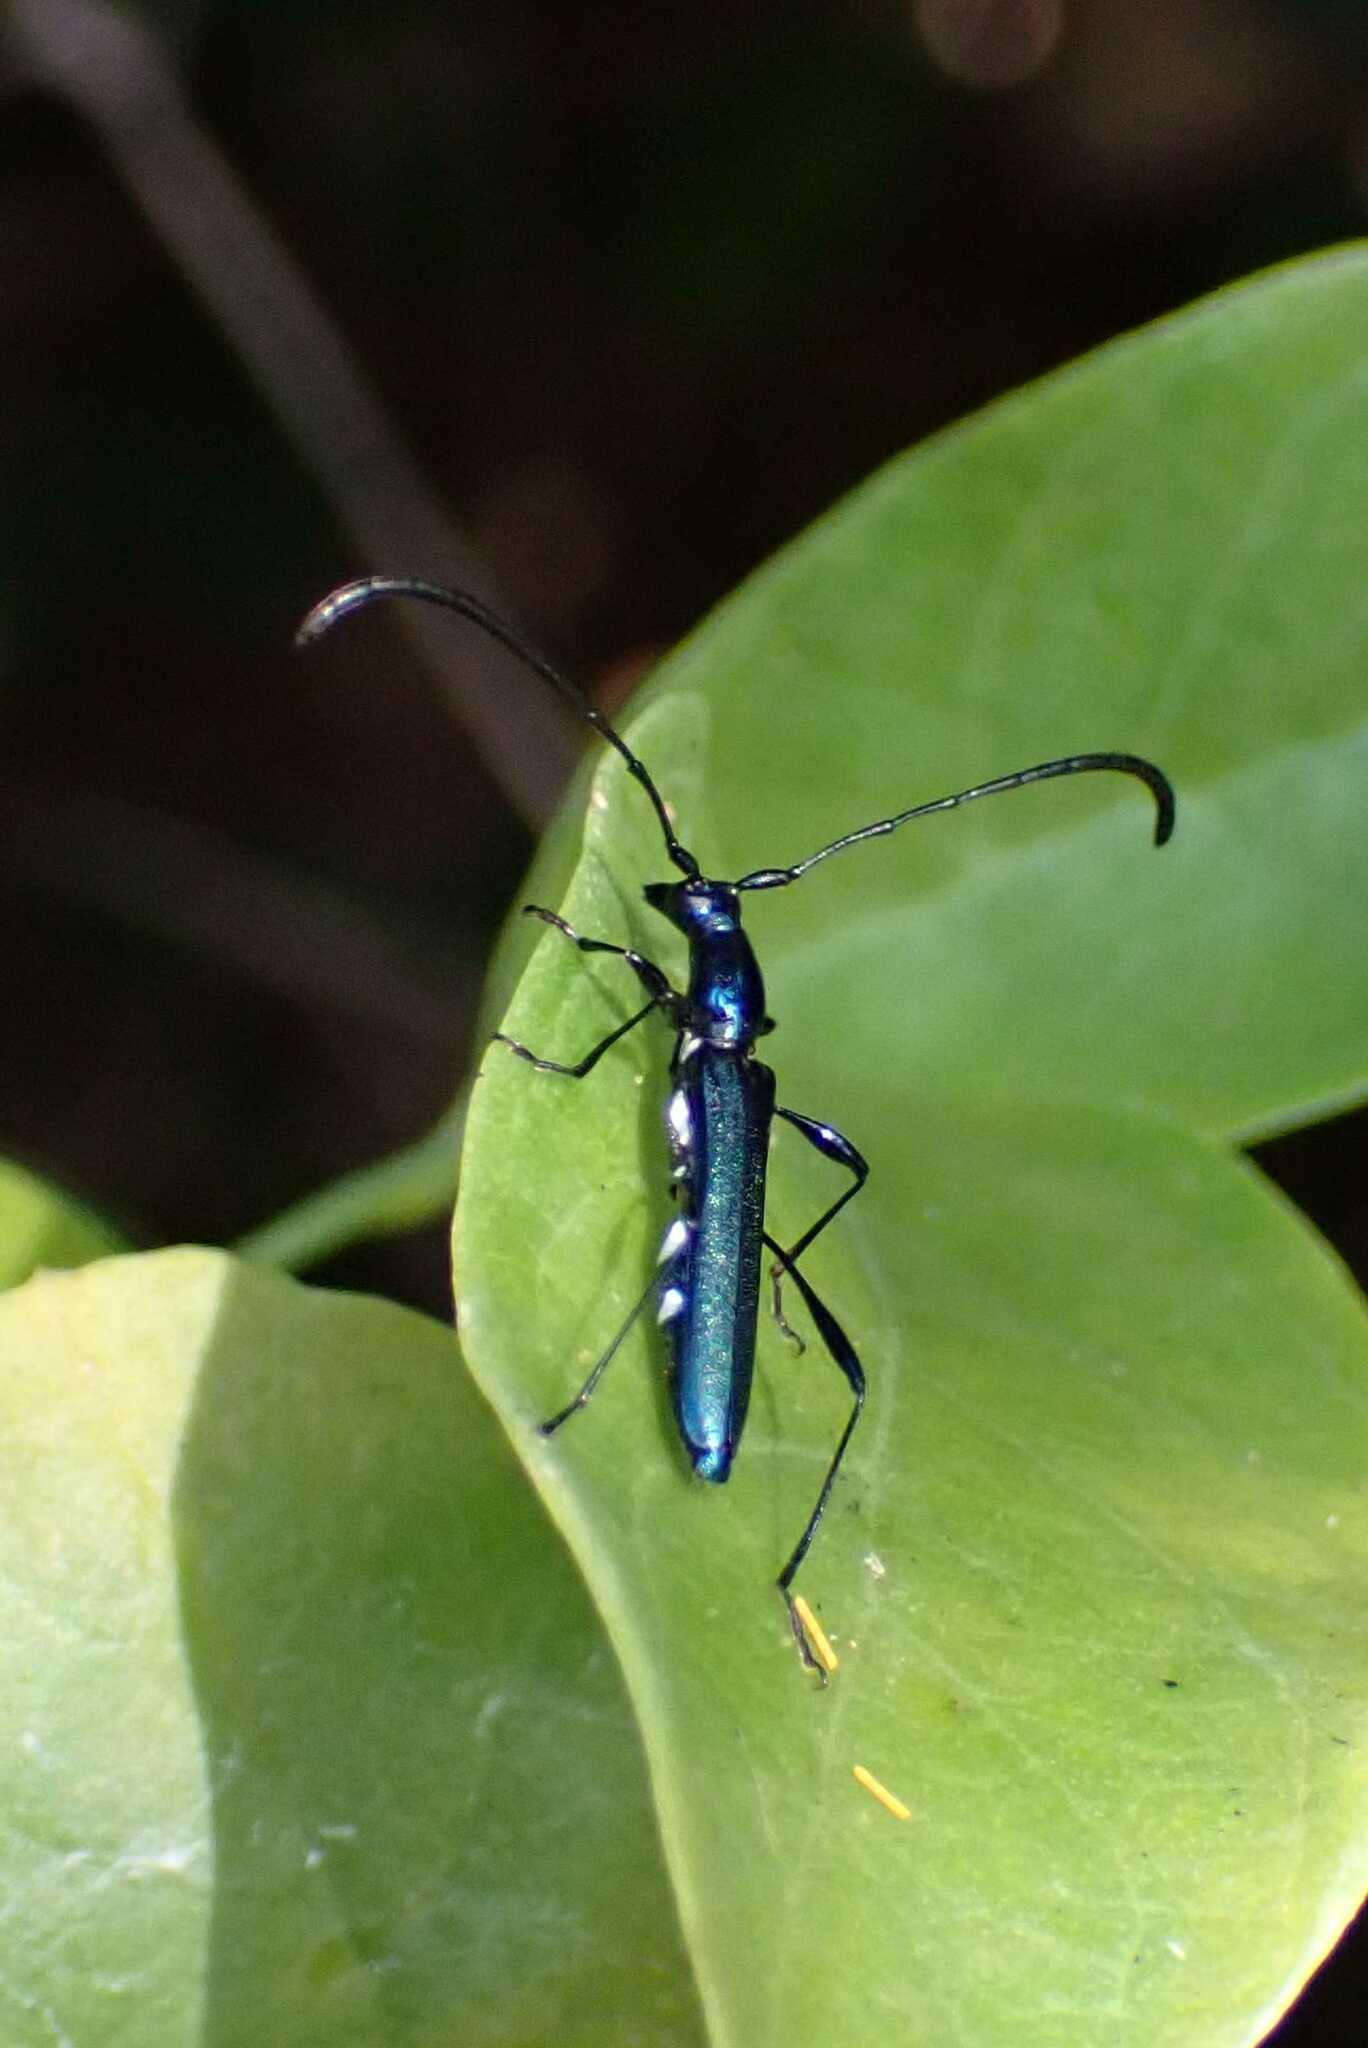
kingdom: Animalia
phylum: Arthropoda
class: Insecta
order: Coleoptera
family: Cerambycidae
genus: Rhopalomeces
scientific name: Rhopalomeces cyanellus
